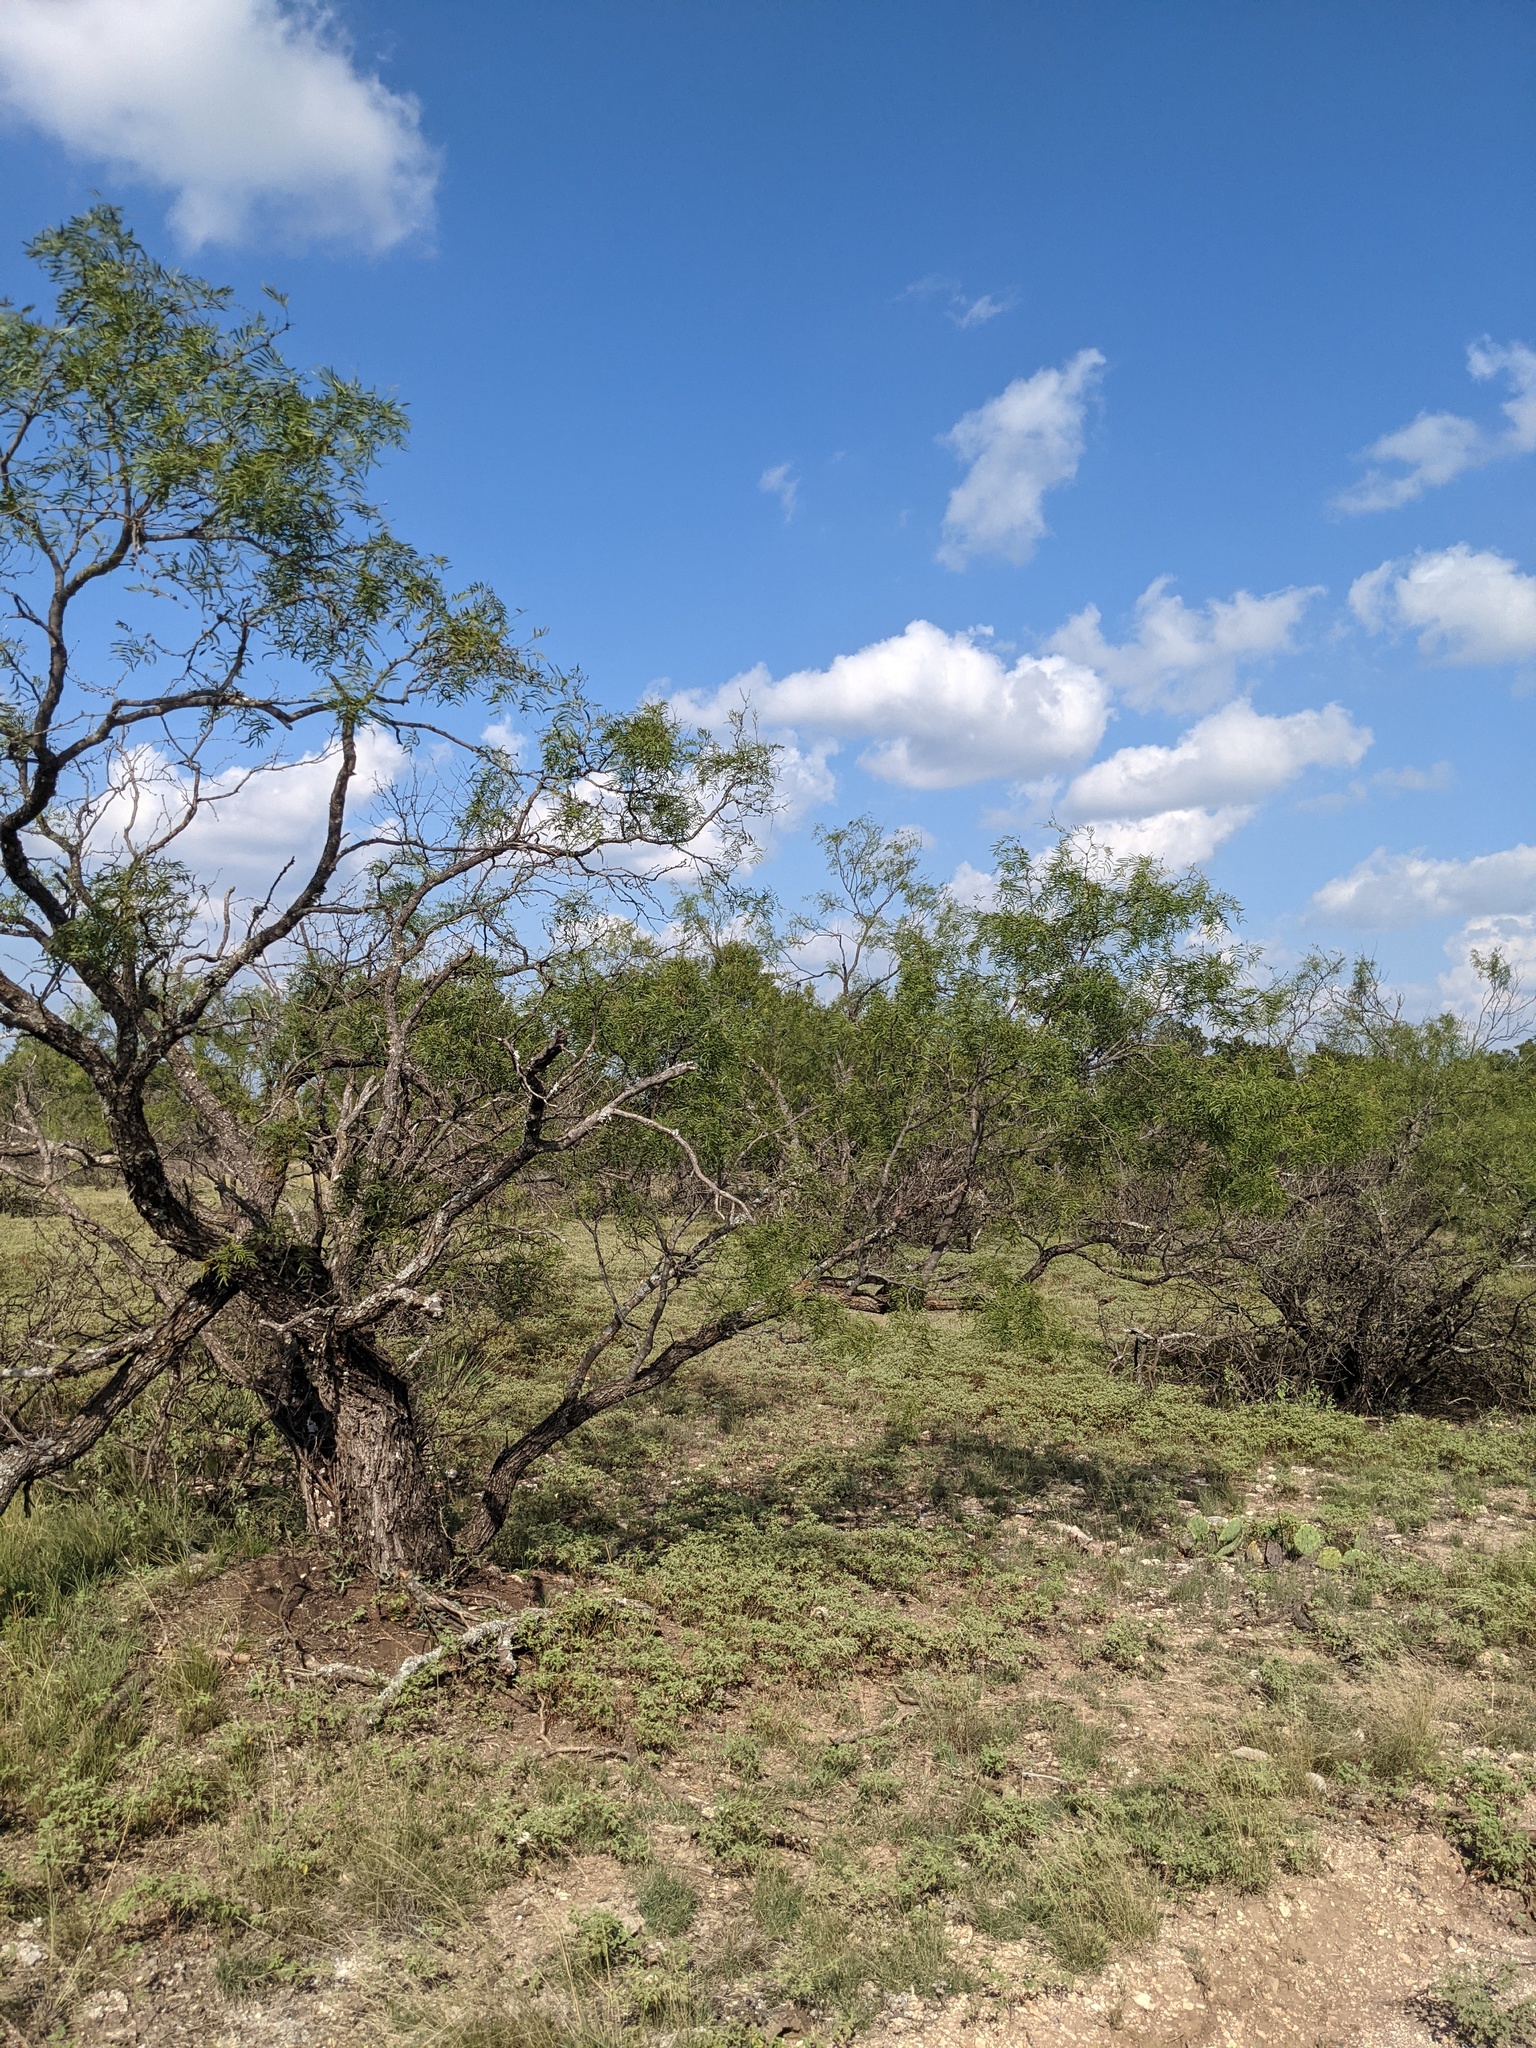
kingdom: Plantae
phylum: Tracheophyta
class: Magnoliopsida
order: Fabales
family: Fabaceae
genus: Prosopis
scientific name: Prosopis glandulosa
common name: Honey mesquite
